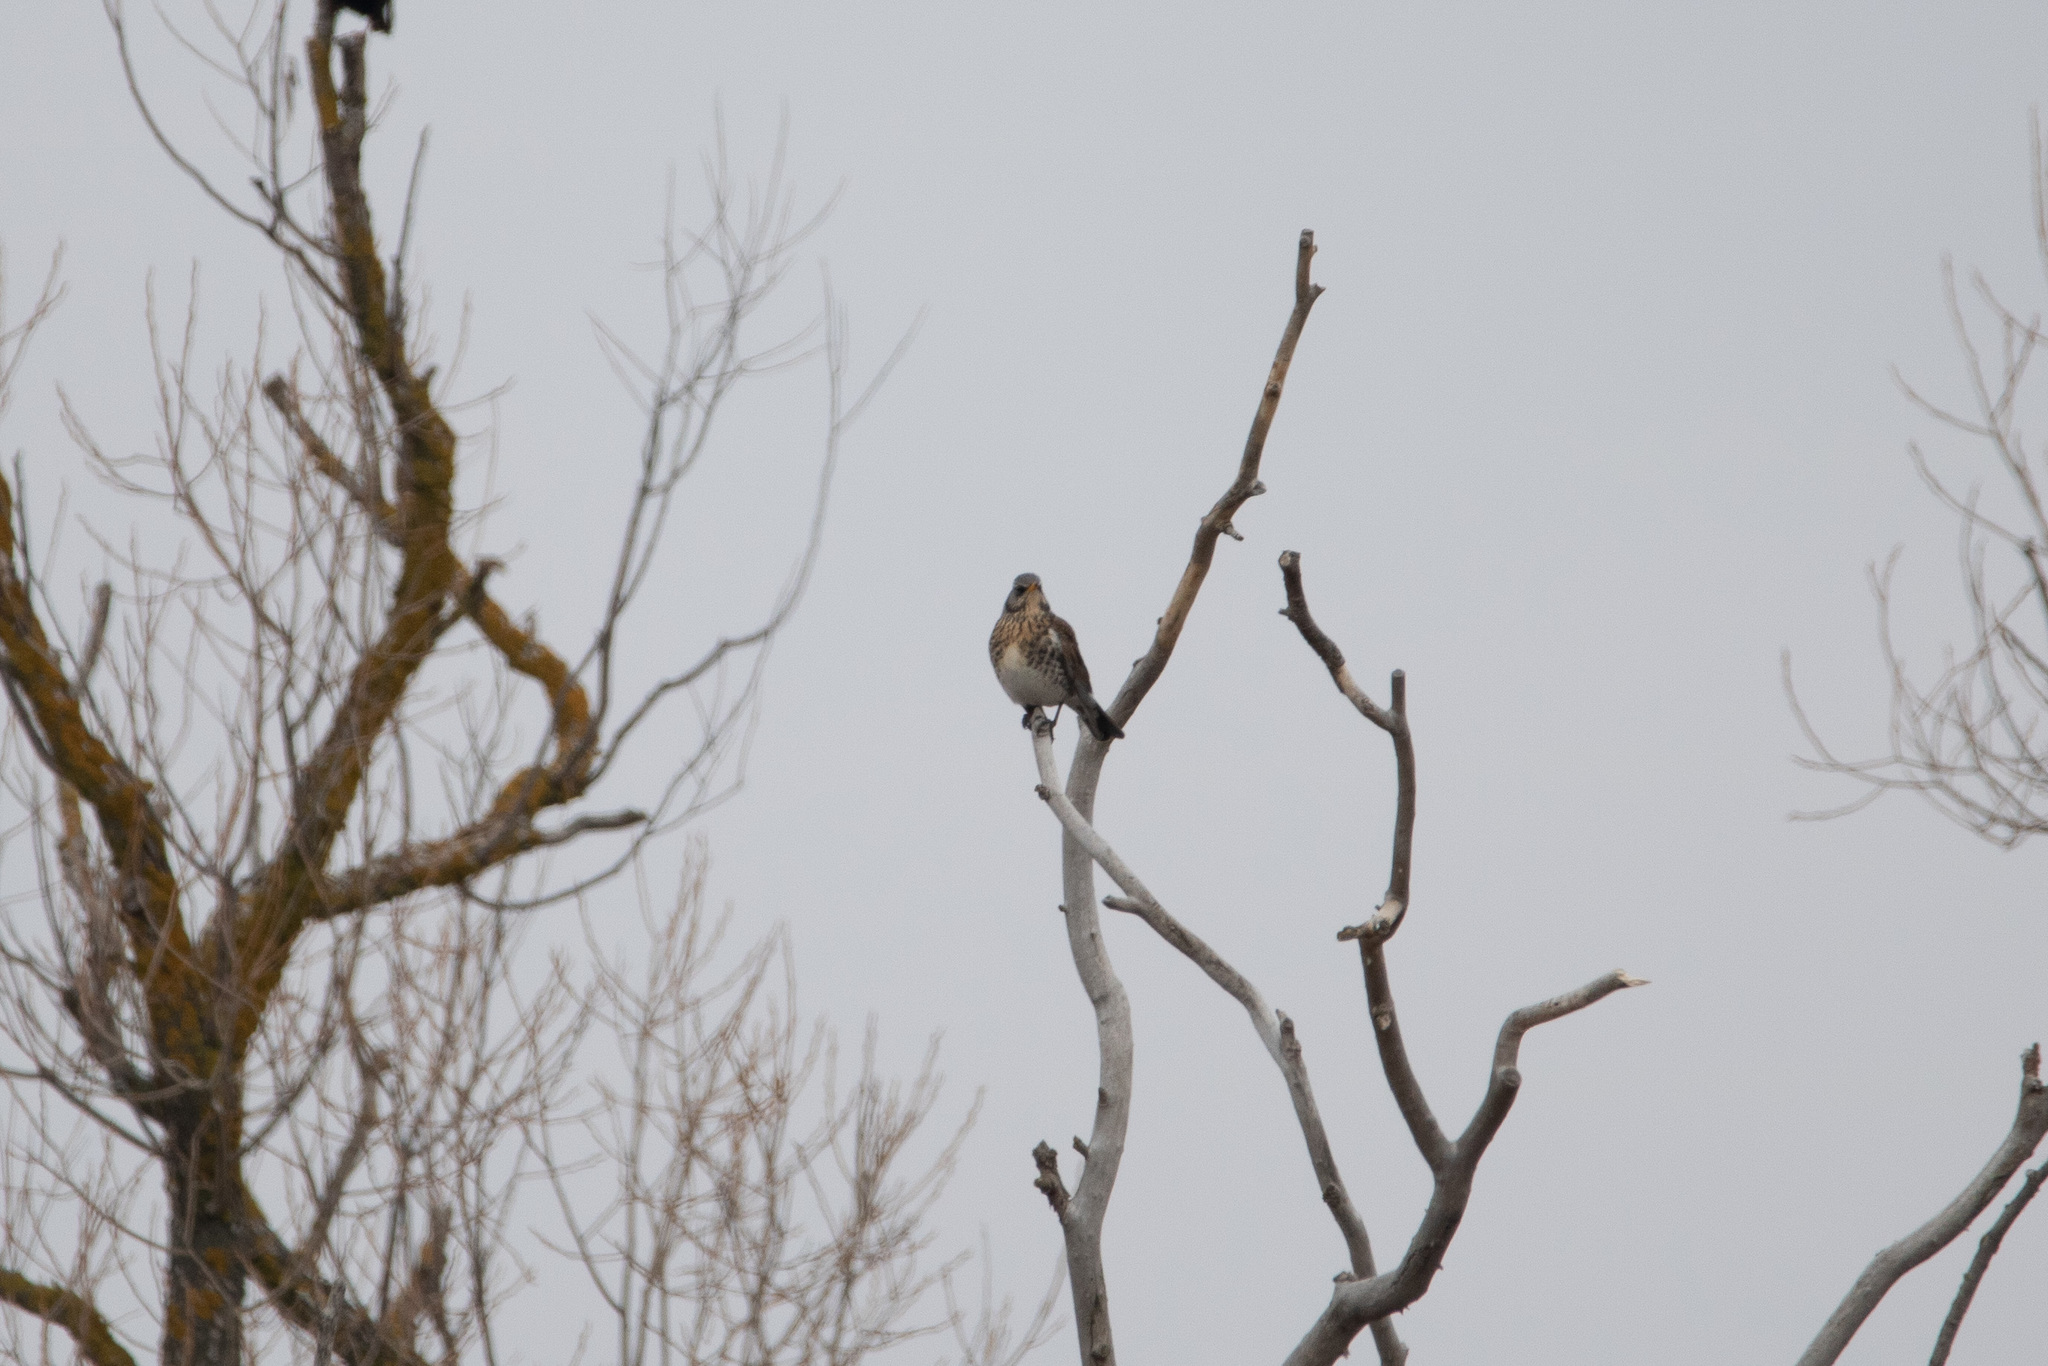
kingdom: Animalia
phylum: Chordata
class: Aves
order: Passeriformes
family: Turdidae
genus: Turdus
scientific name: Turdus pilaris
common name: Fieldfare
